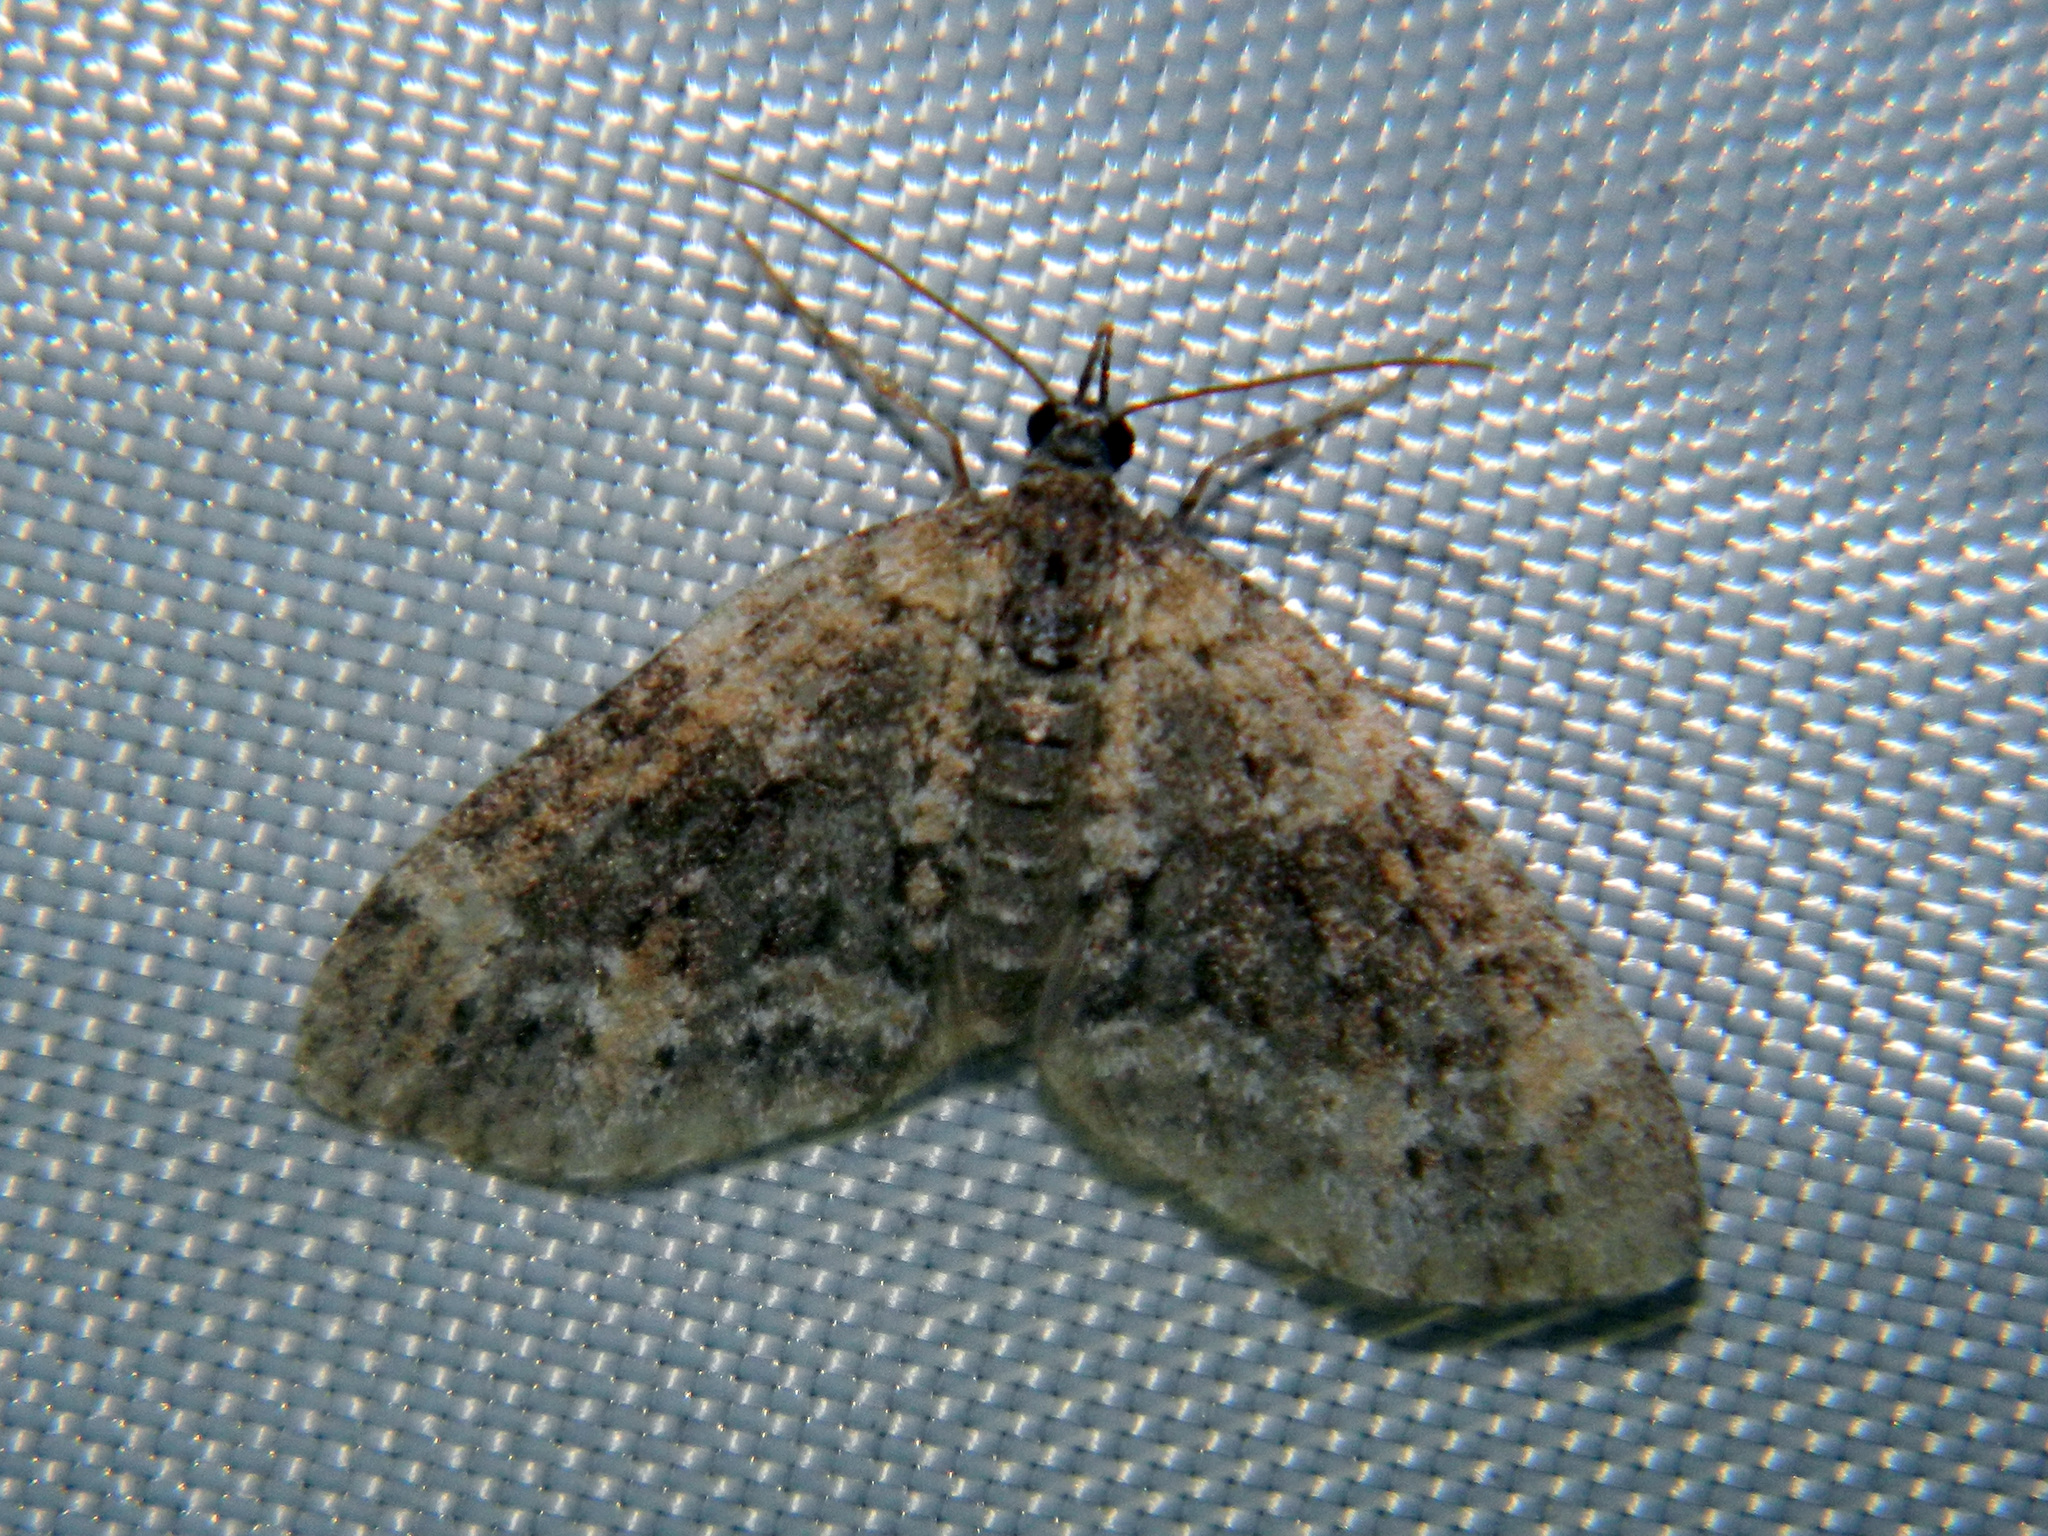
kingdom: Animalia
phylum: Arthropoda
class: Insecta
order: Lepidoptera
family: Geometridae
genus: Acasis
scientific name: Acasis viridata
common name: Olive-and-black carpet moth
